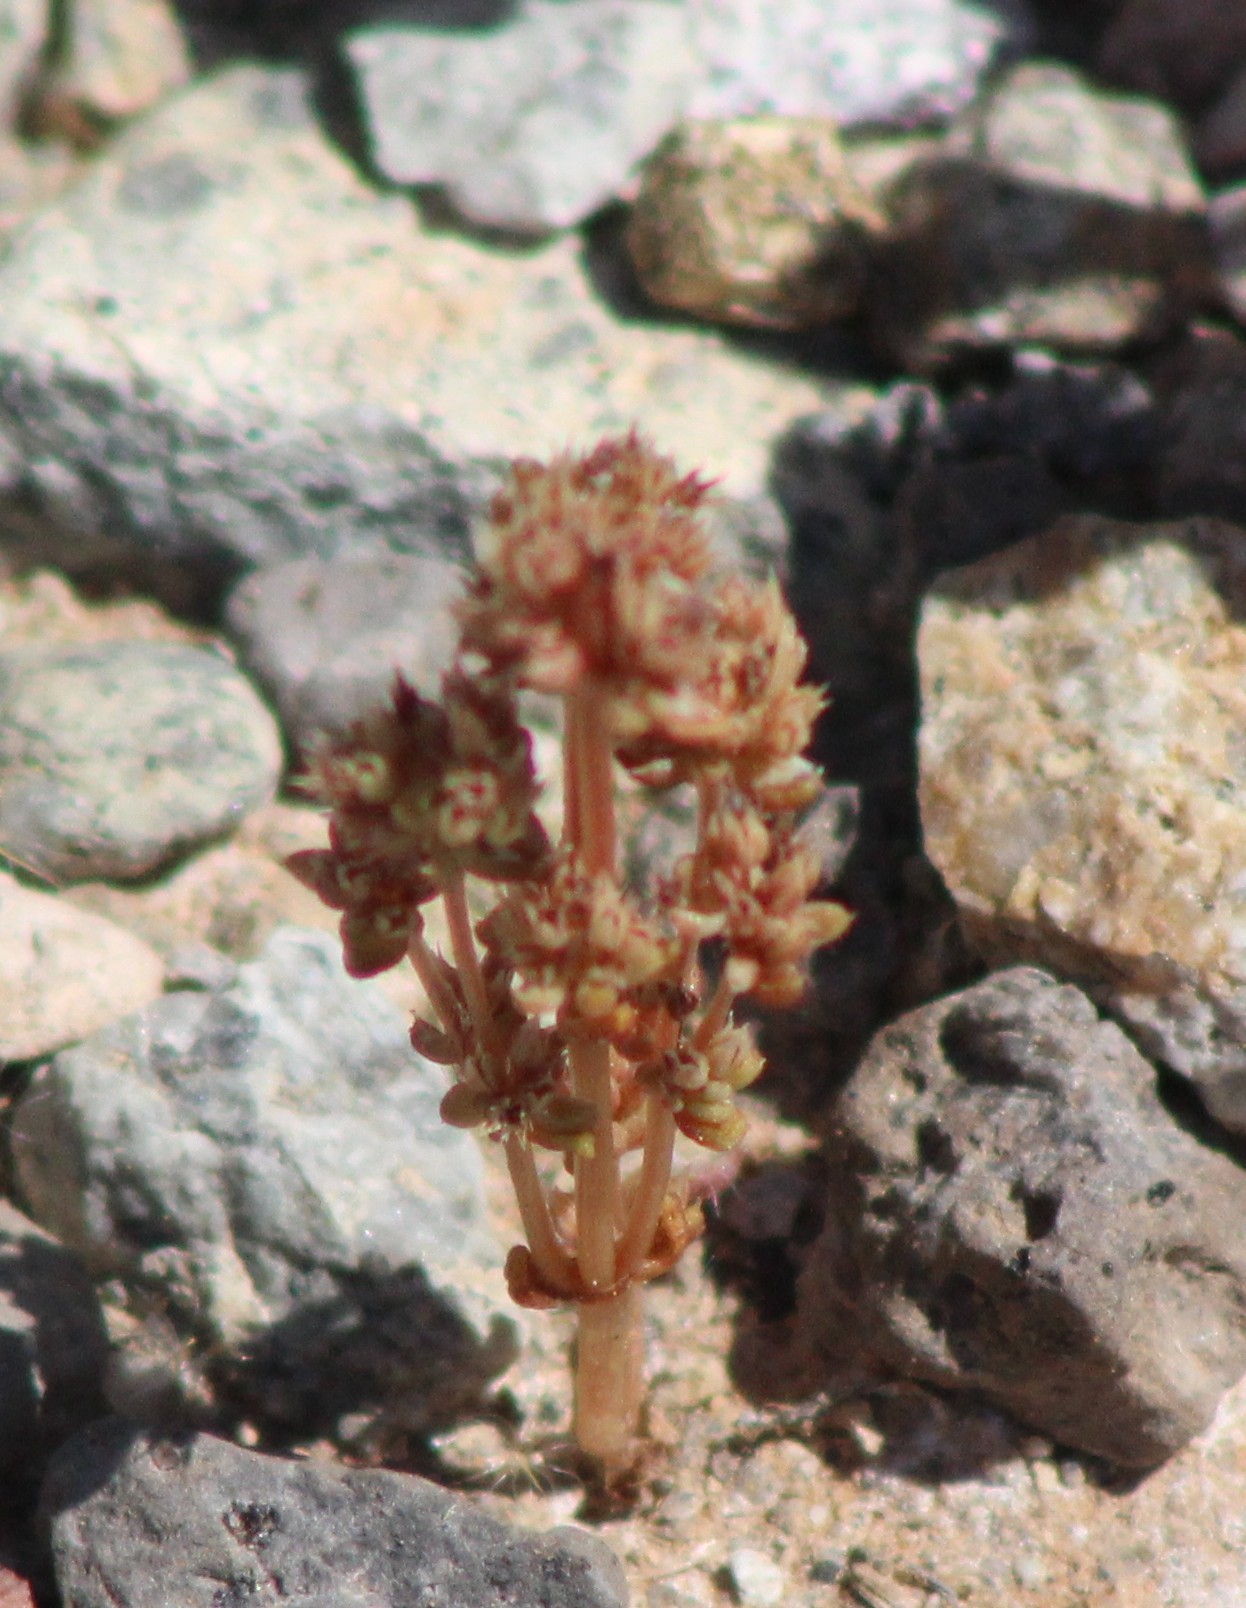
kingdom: Plantae
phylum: Tracheophyta
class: Magnoliopsida
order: Saxifragales
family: Crassulaceae
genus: Crassula
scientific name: Crassula connata
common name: Erect pygmyweed
